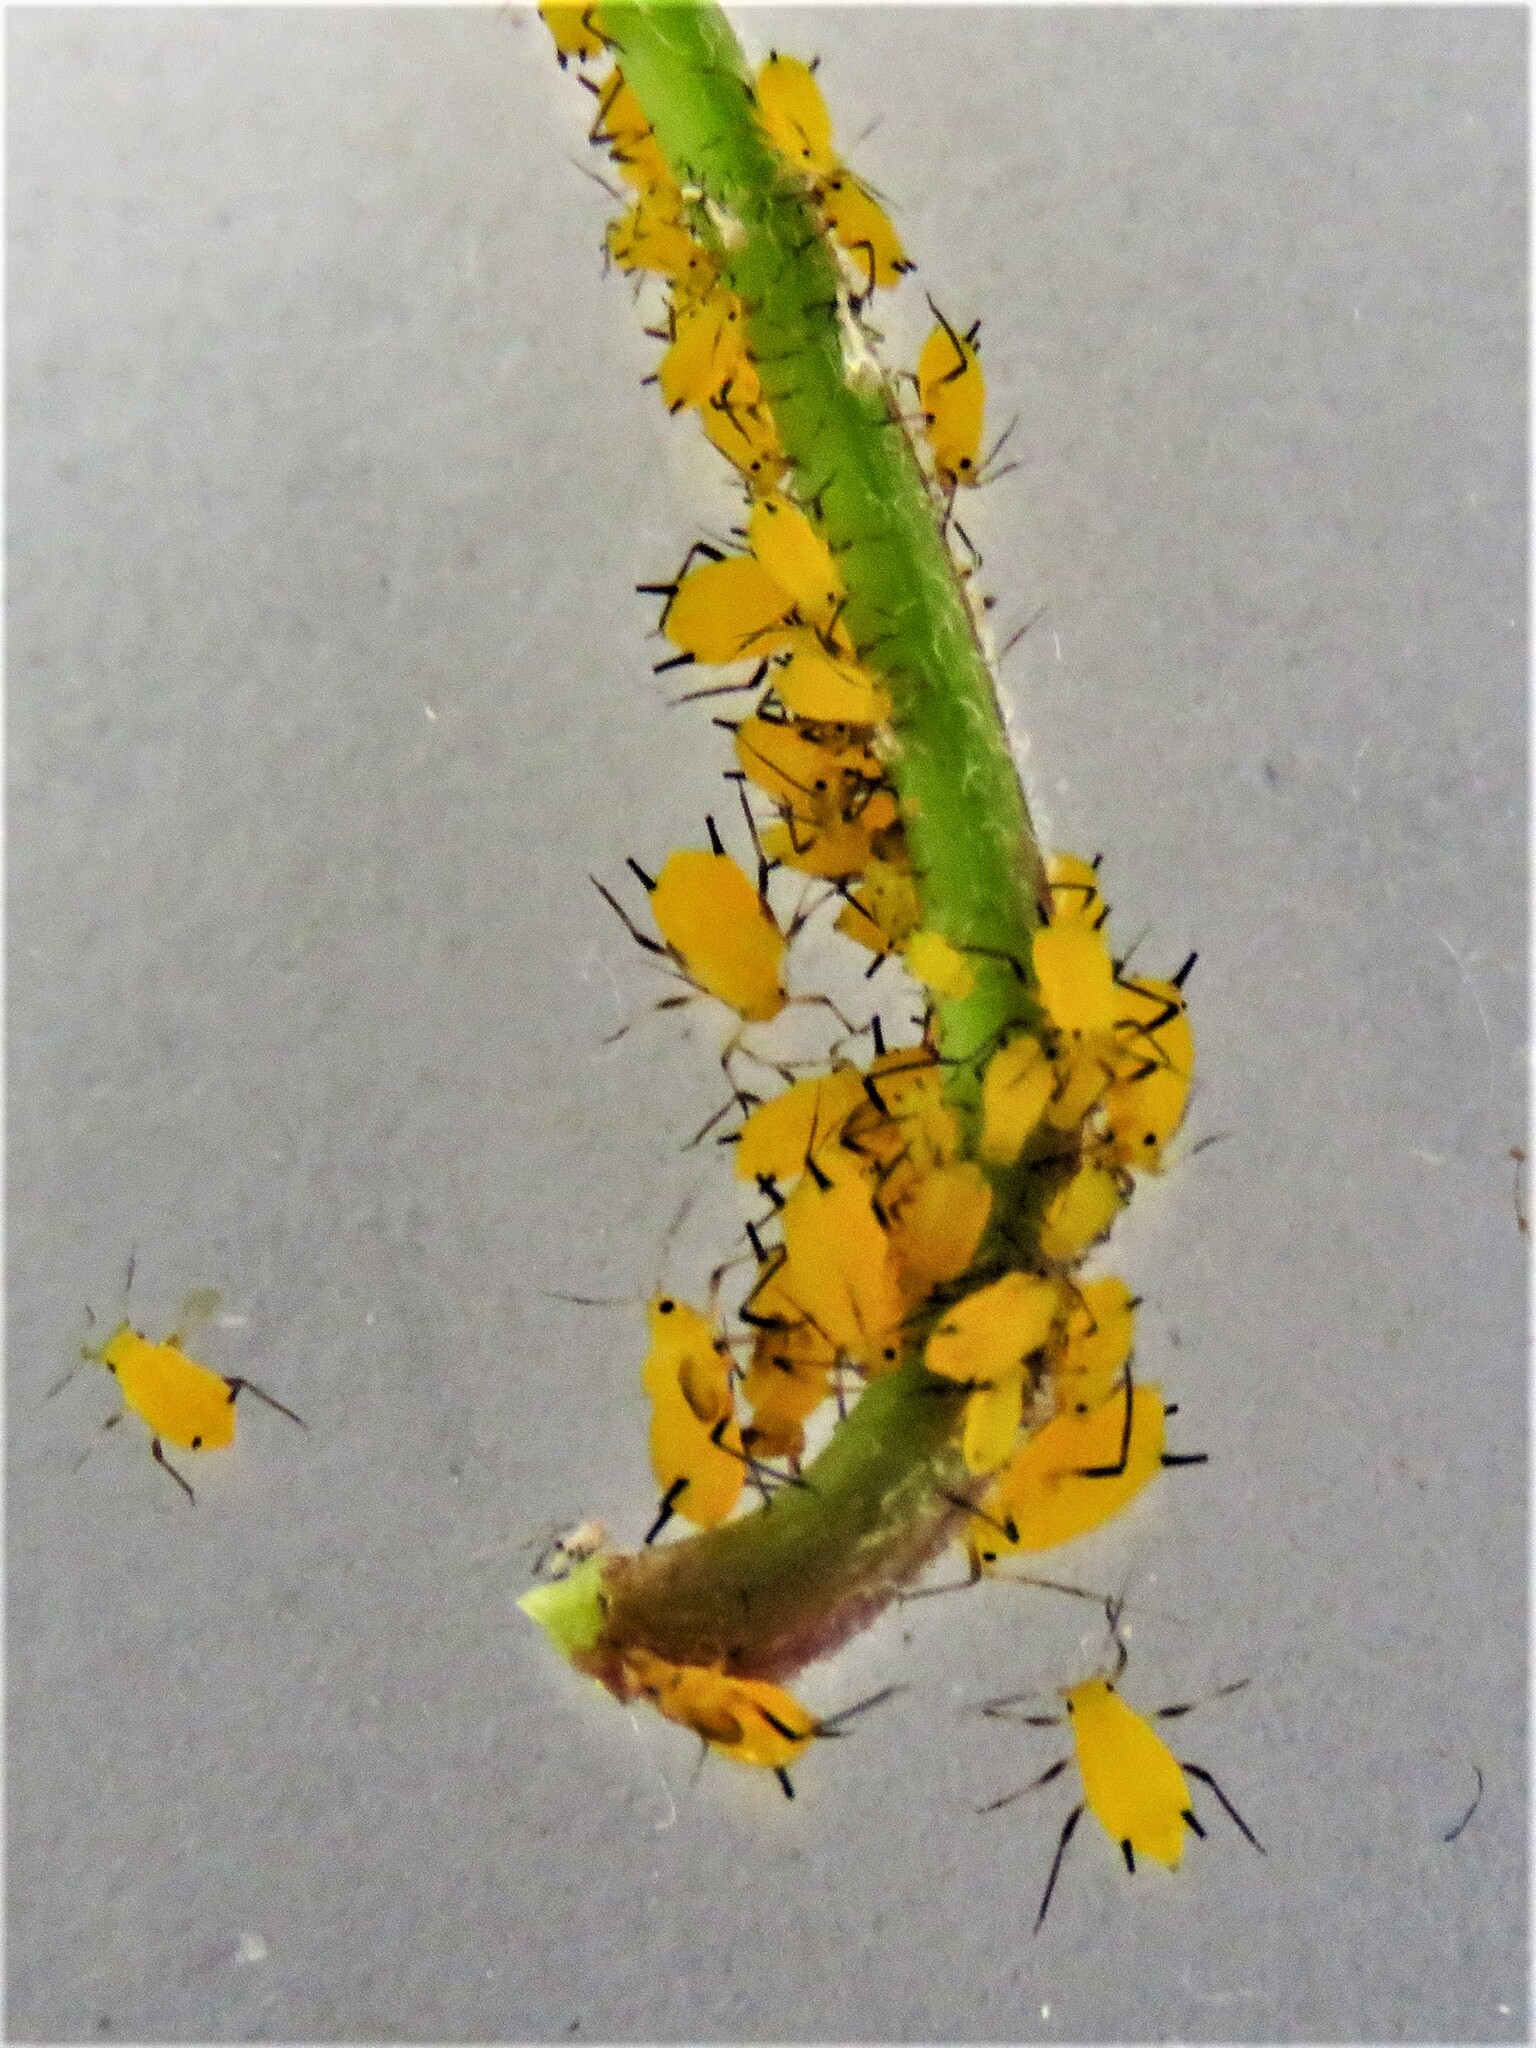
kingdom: Animalia
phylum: Arthropoda
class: Insecta
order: Hemiptera
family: Aphididae
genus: Aphis
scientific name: Aphis nerii
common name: Oleander aphid
